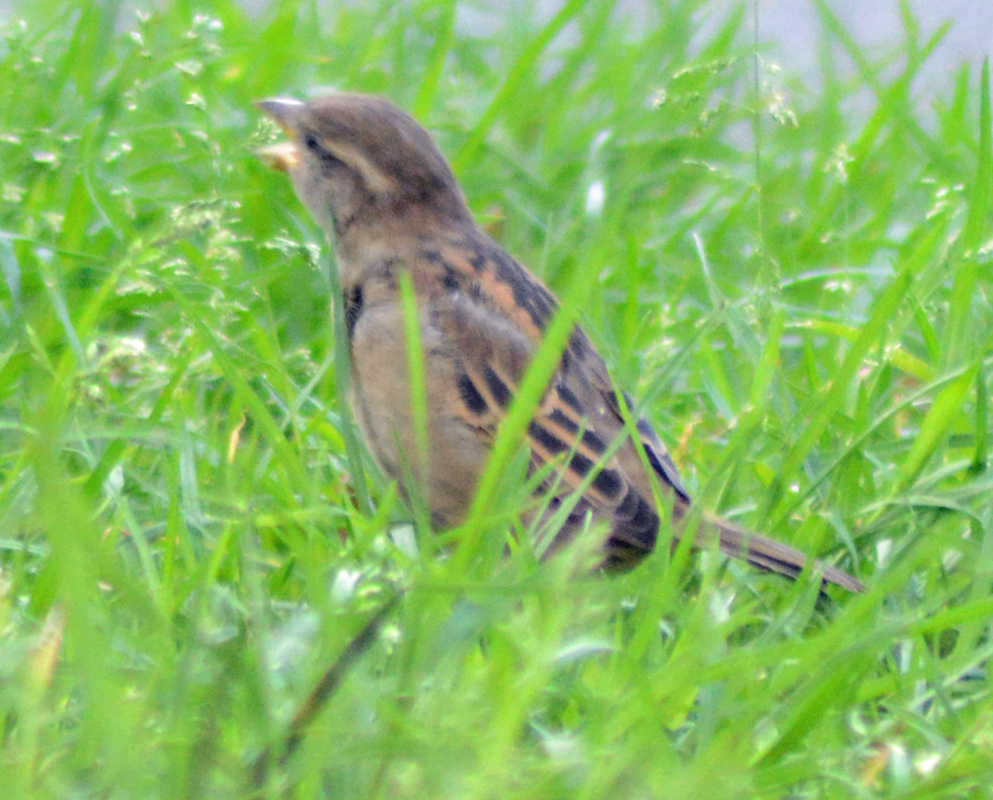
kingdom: Animalia
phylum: Chordata
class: Aves
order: Passeriformes
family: Passeridae
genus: Passer
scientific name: Passer domesticus
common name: House sparrow
